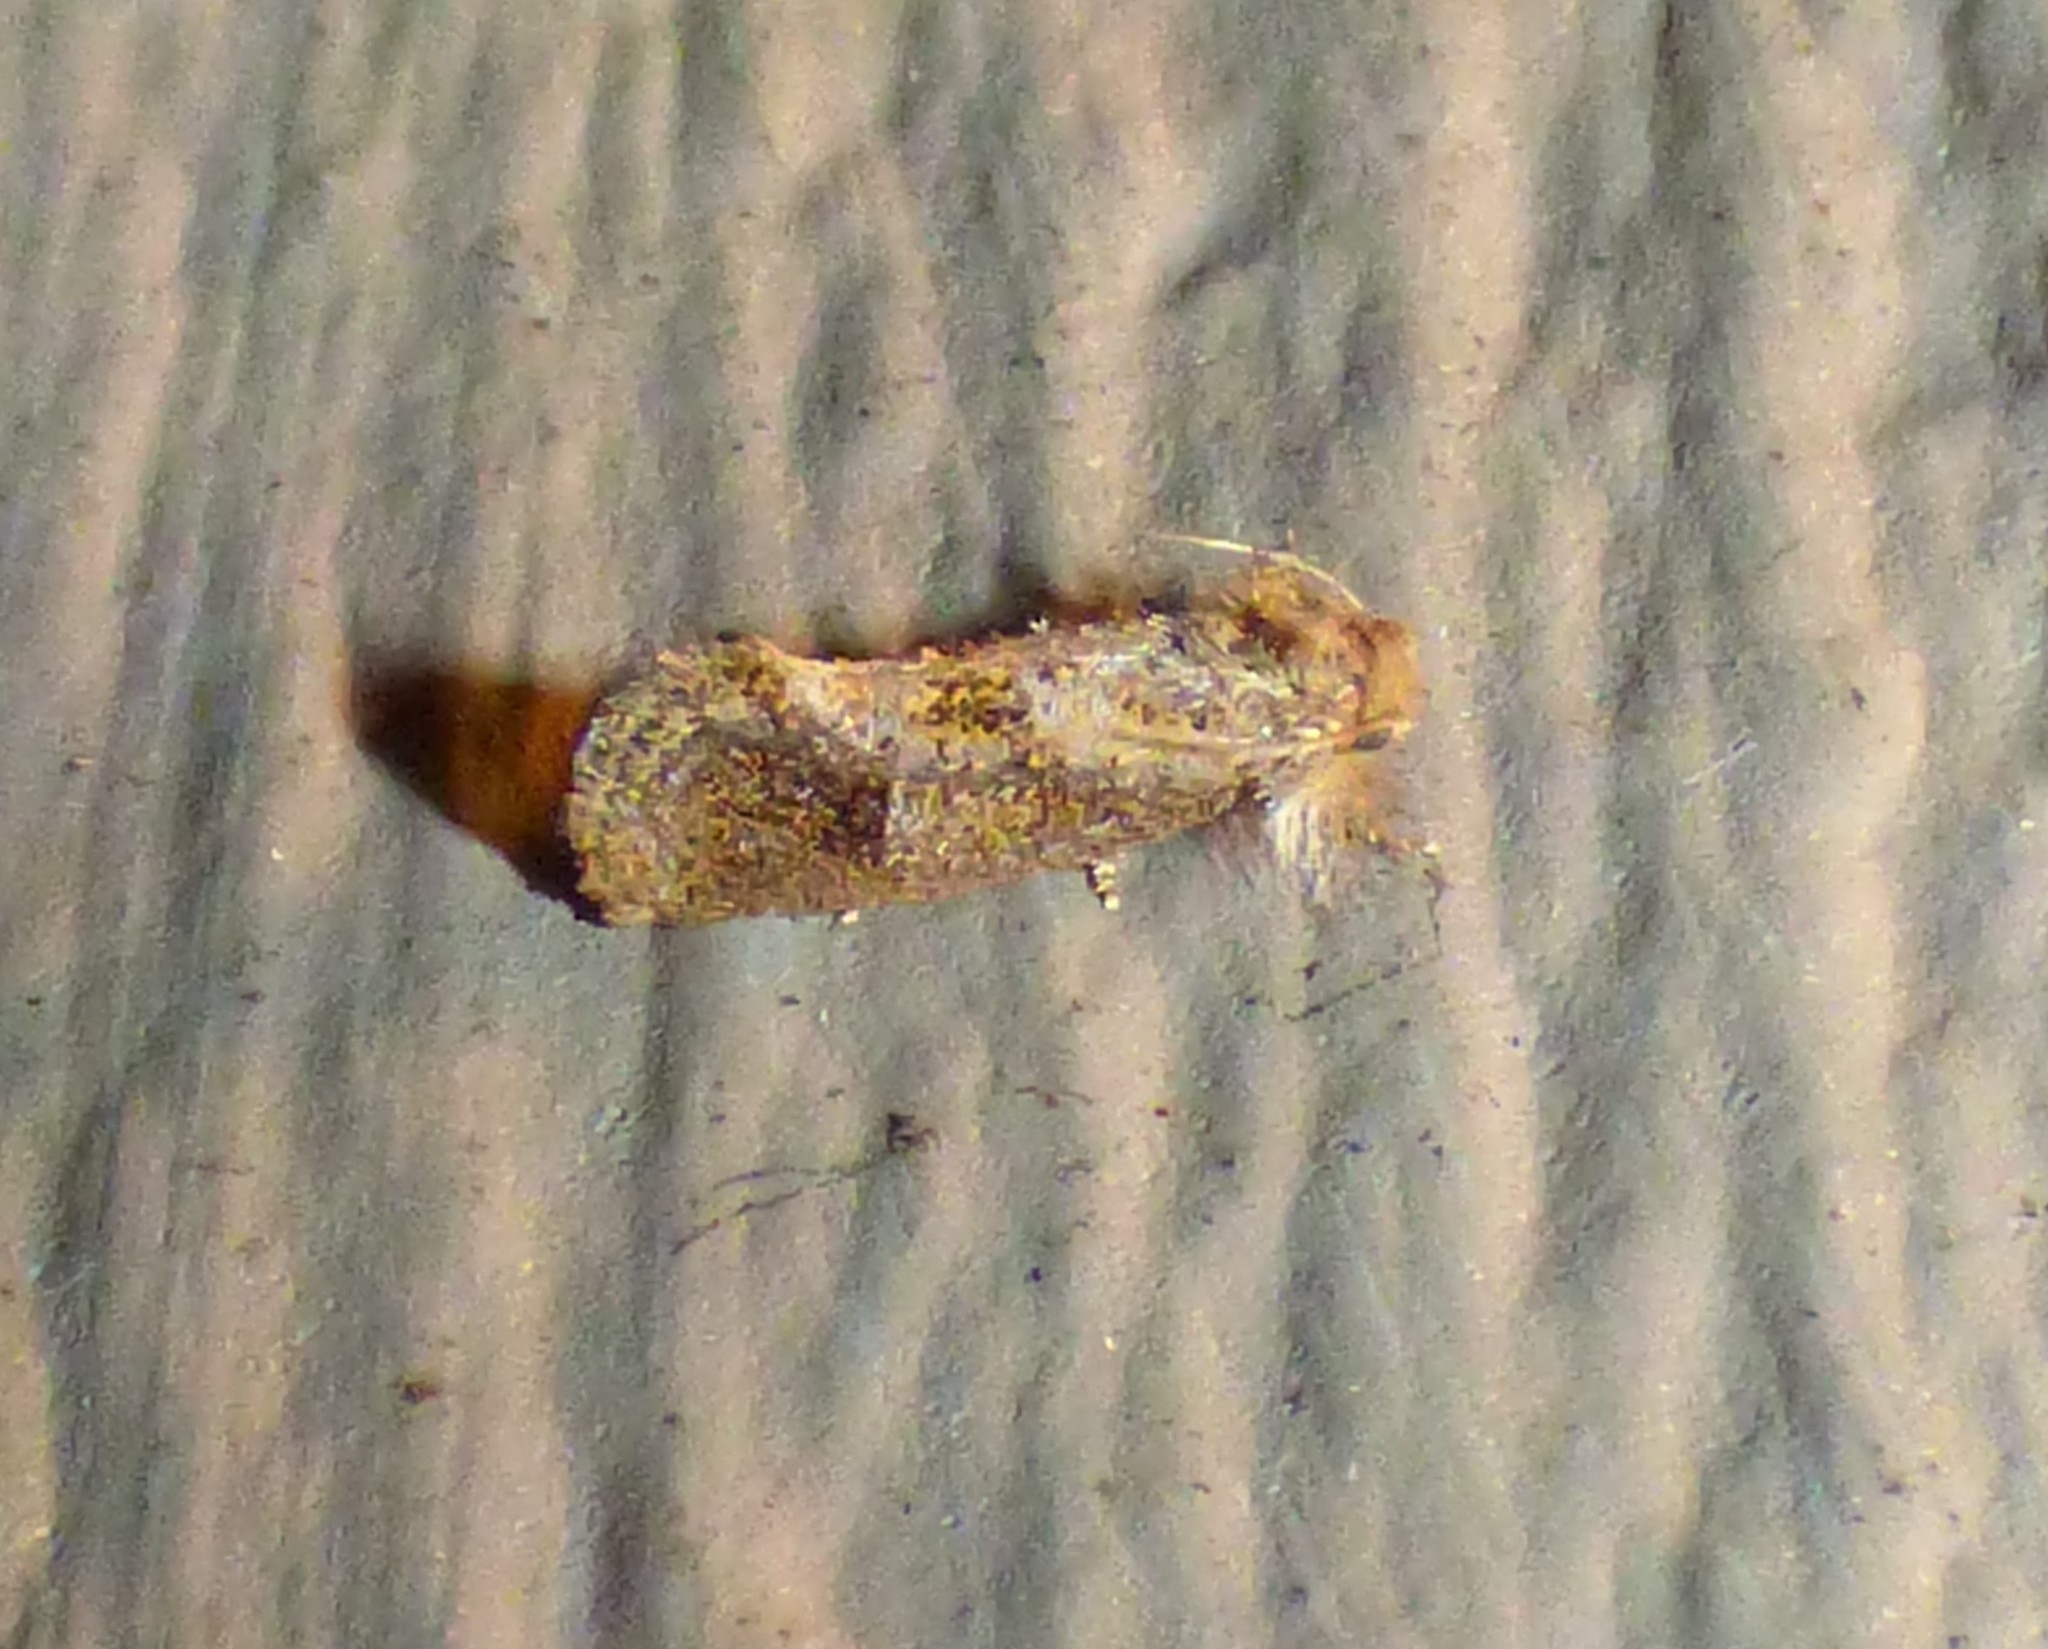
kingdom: Animalia
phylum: Arthropoda
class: Insecta
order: Lepidoptera
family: Tineidae
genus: Acrolophus
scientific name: Acrolophus panamae
